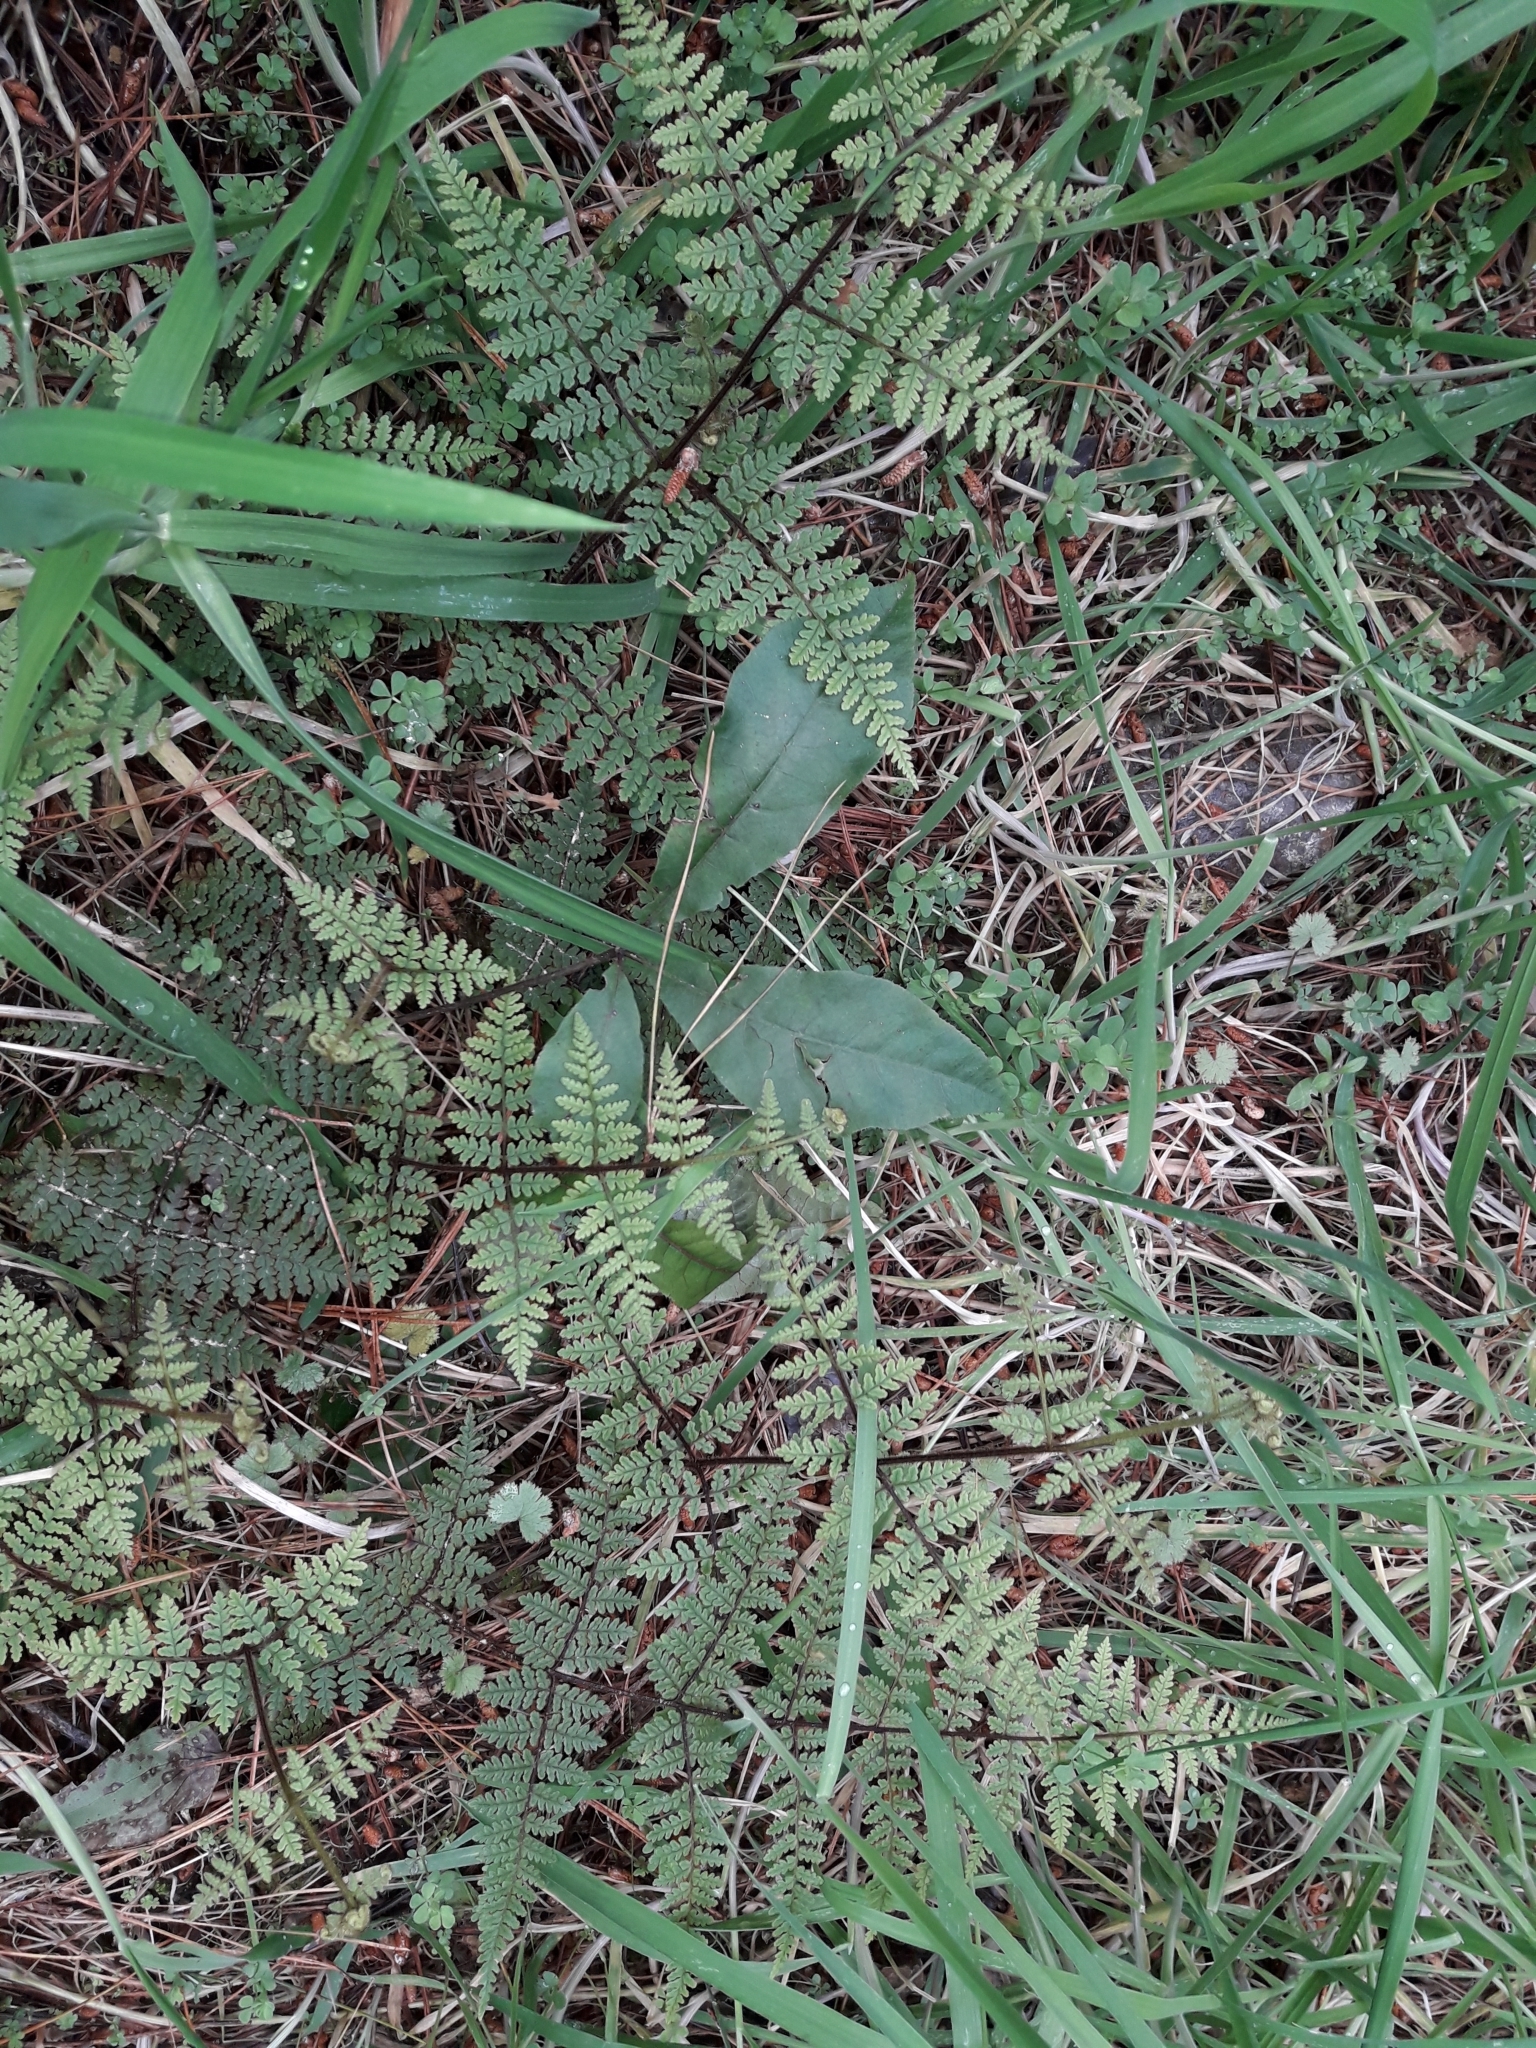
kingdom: Plantae
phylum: Tracheophyta
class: Polypodiopsida
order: Polypodiales
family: Dennstaedtiaceae
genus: Hypolepis
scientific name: Hypolepis rugosula
